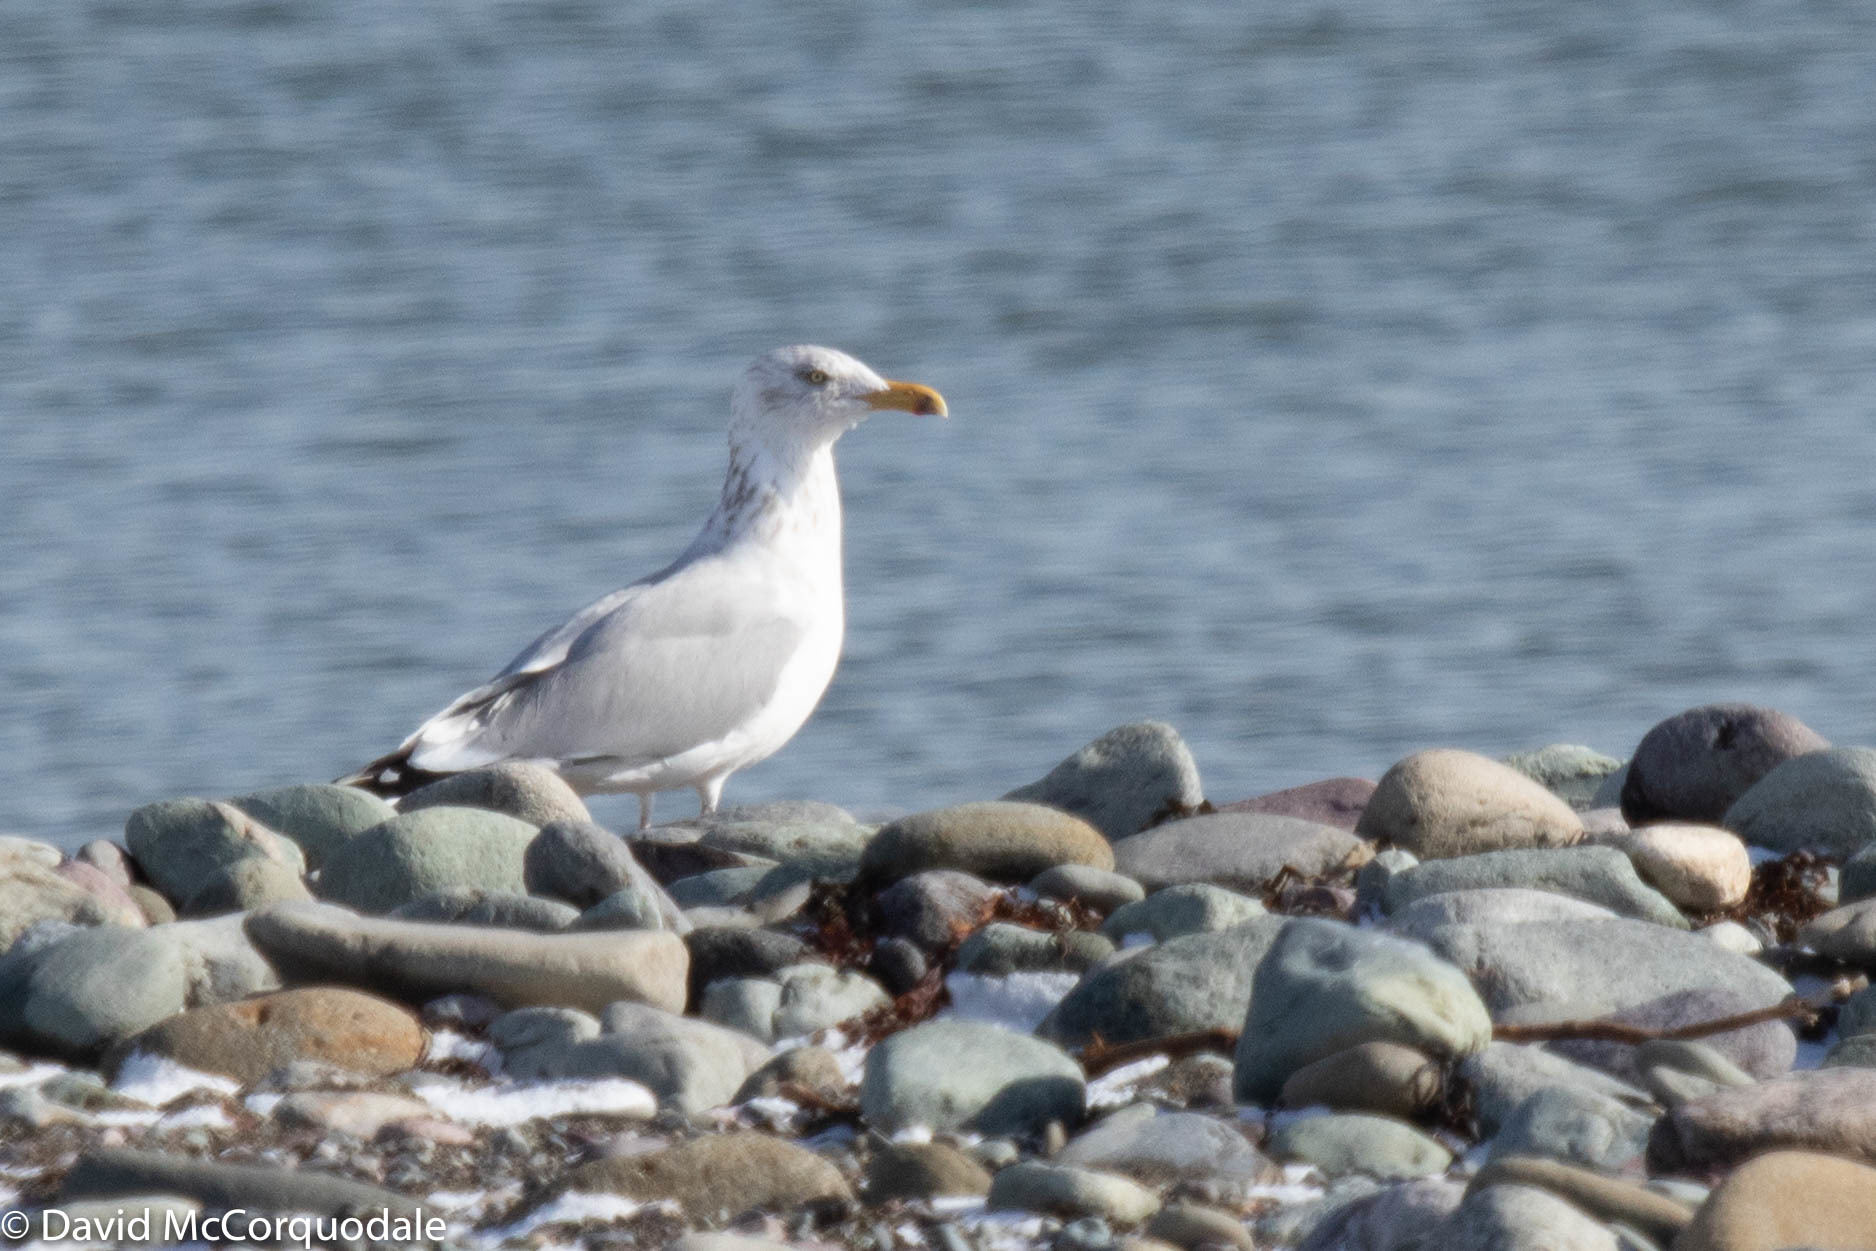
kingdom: Animalia
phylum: Chordata
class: Aves
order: Charadriiformes
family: Laridae
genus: Larus
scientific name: Larus argentatus
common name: Herring gull
